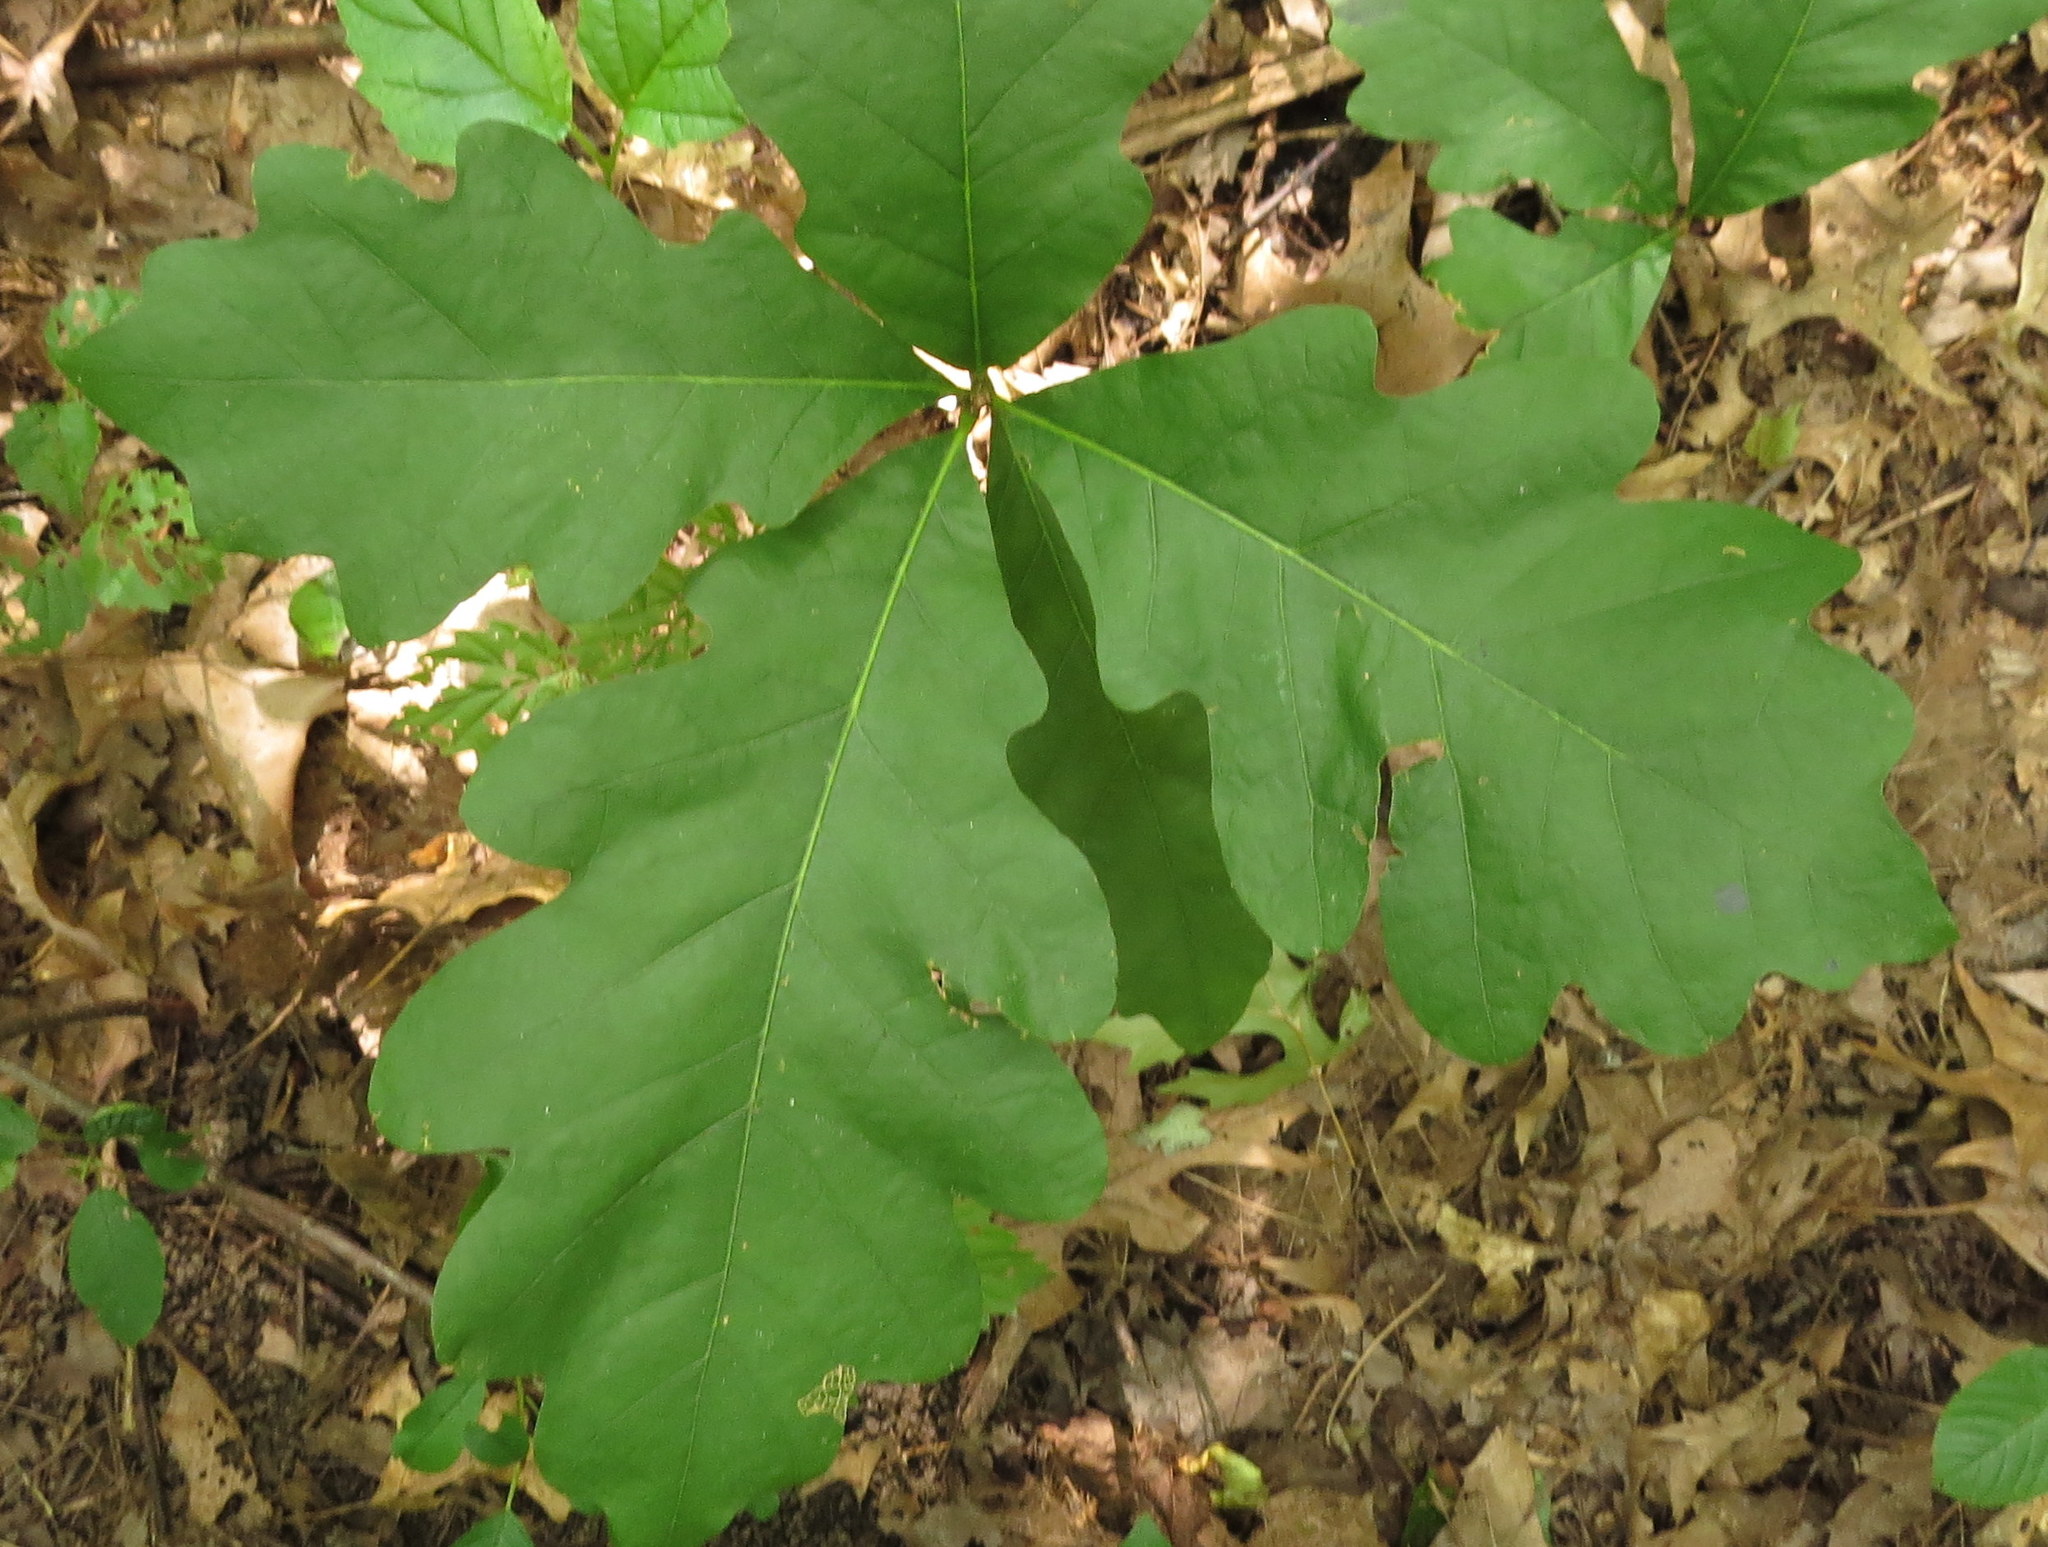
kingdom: Plantae
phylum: Tracheophyta
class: Magnoliopsida
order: Fagales
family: Fagaceae
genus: Quercus
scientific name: Quercus alba
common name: White oak
